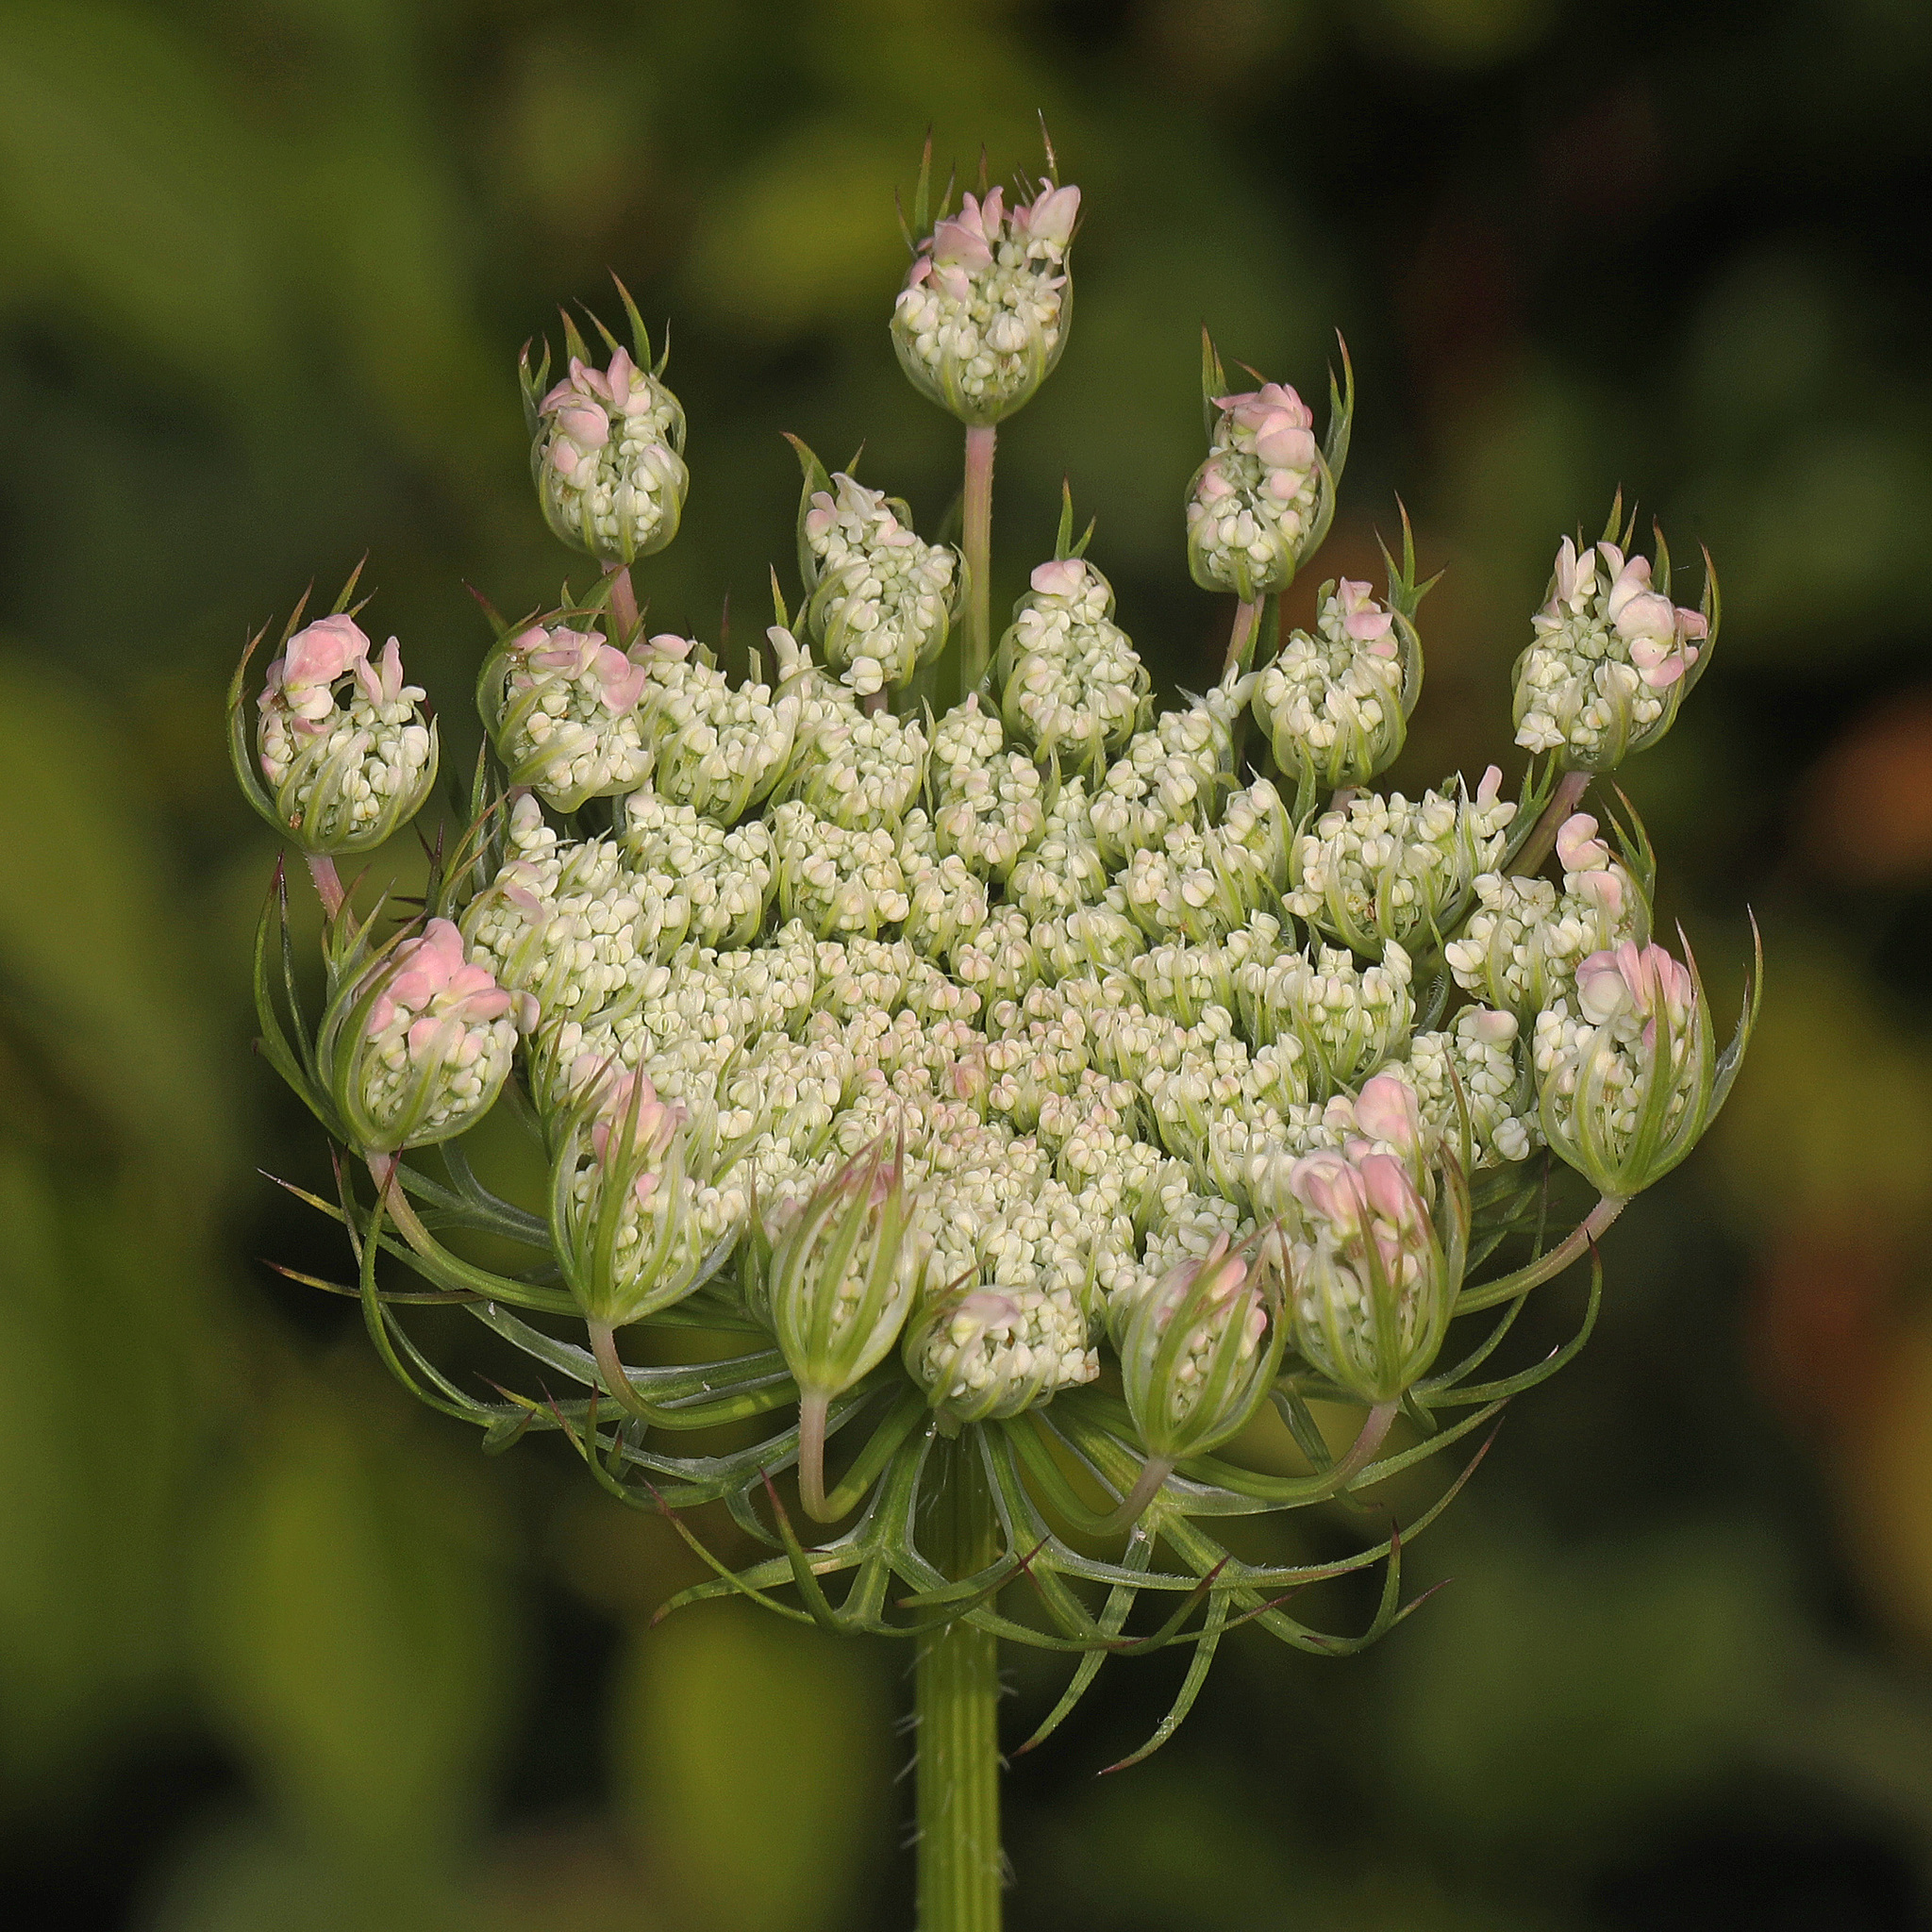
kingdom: Plantae
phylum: Tracheophyta
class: Magnoliopsida
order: Apiales
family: Apiaceae
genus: Daucus
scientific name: Daucus carota
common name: Wild carrot
